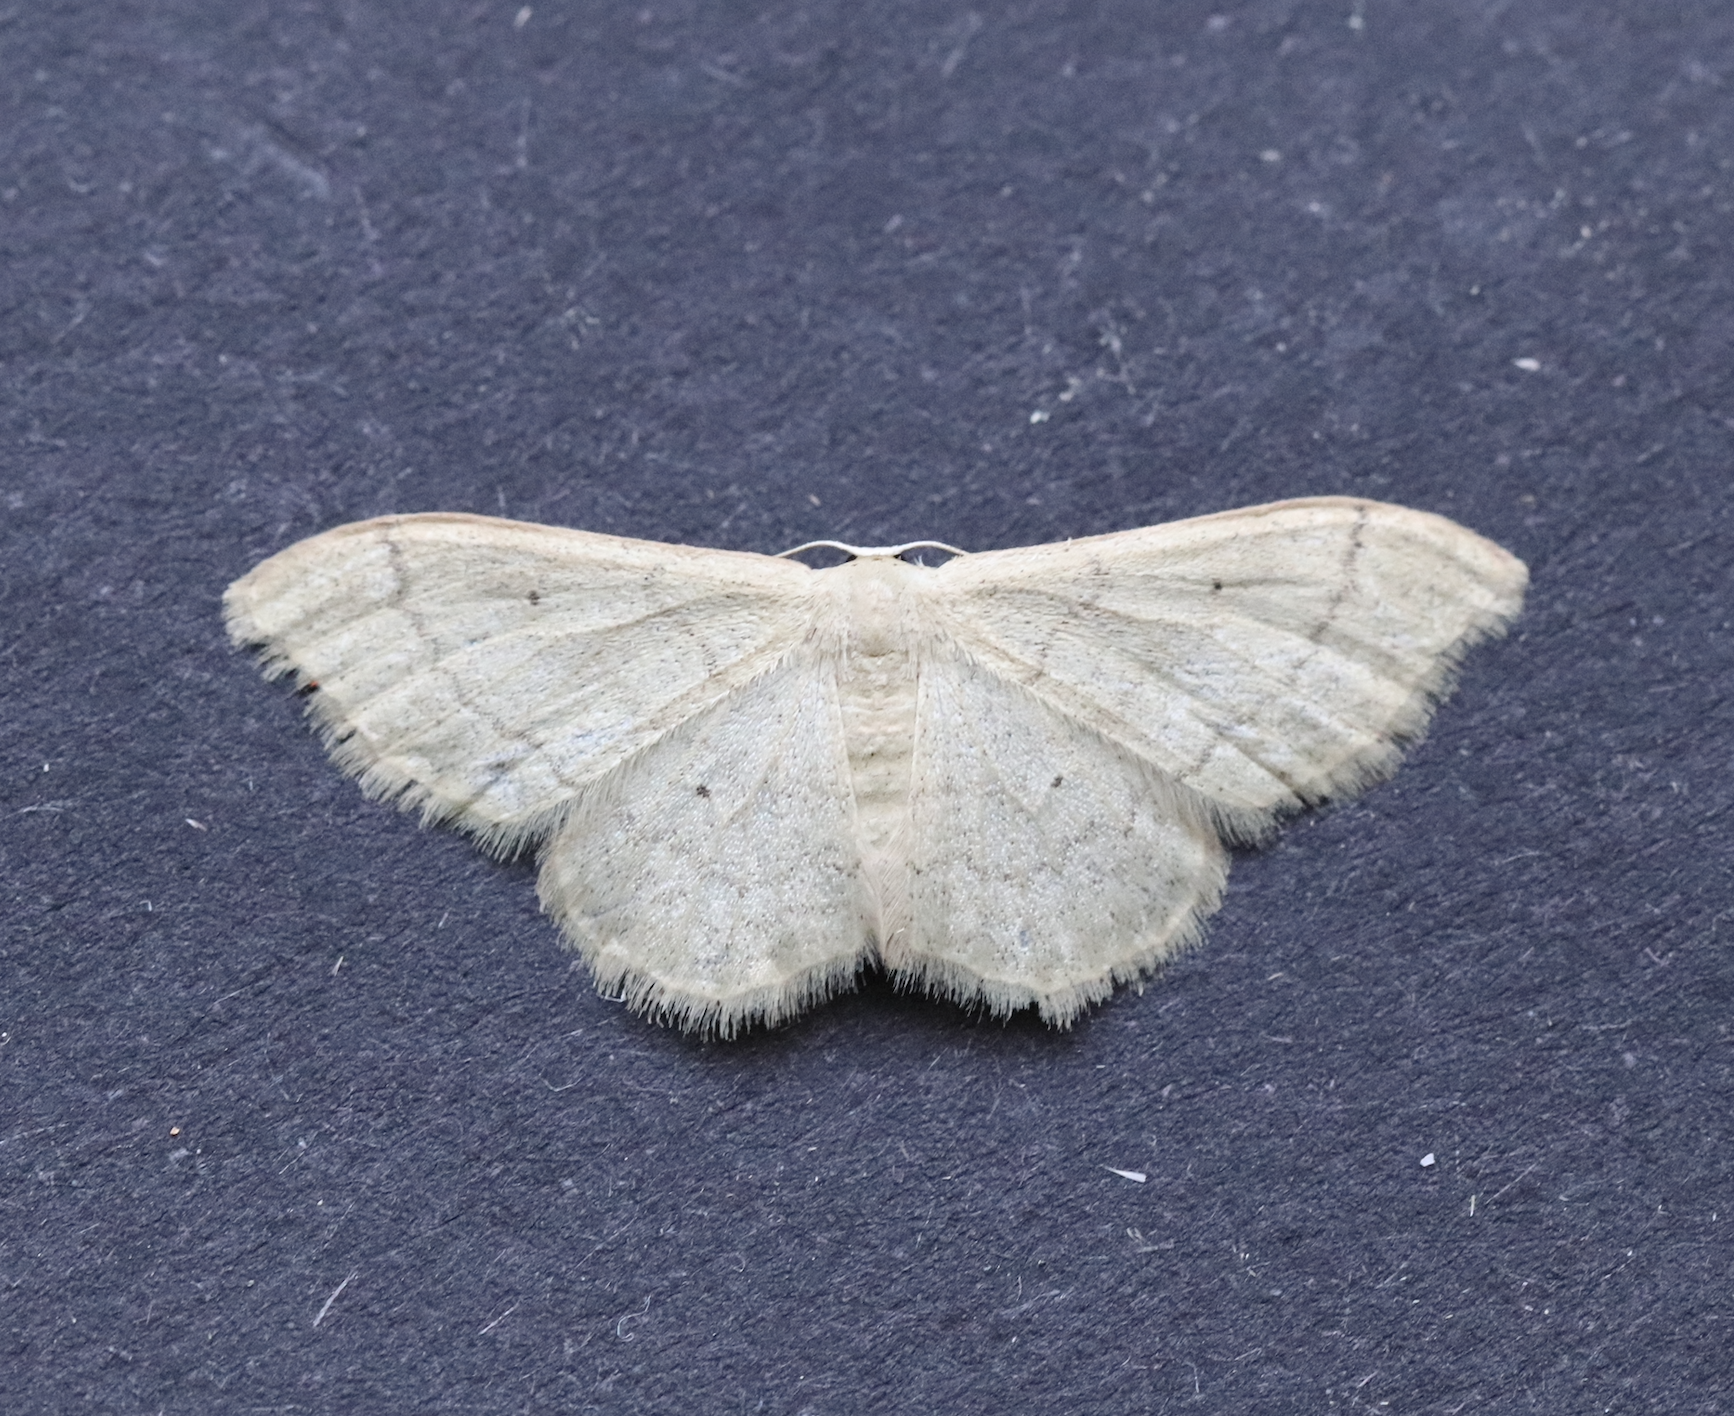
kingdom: Animalia
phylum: Arthropoda
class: Insecta
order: Lepidoptera
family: Geometridae
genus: Idaea
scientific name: Idaea straminata
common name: Plain wave
